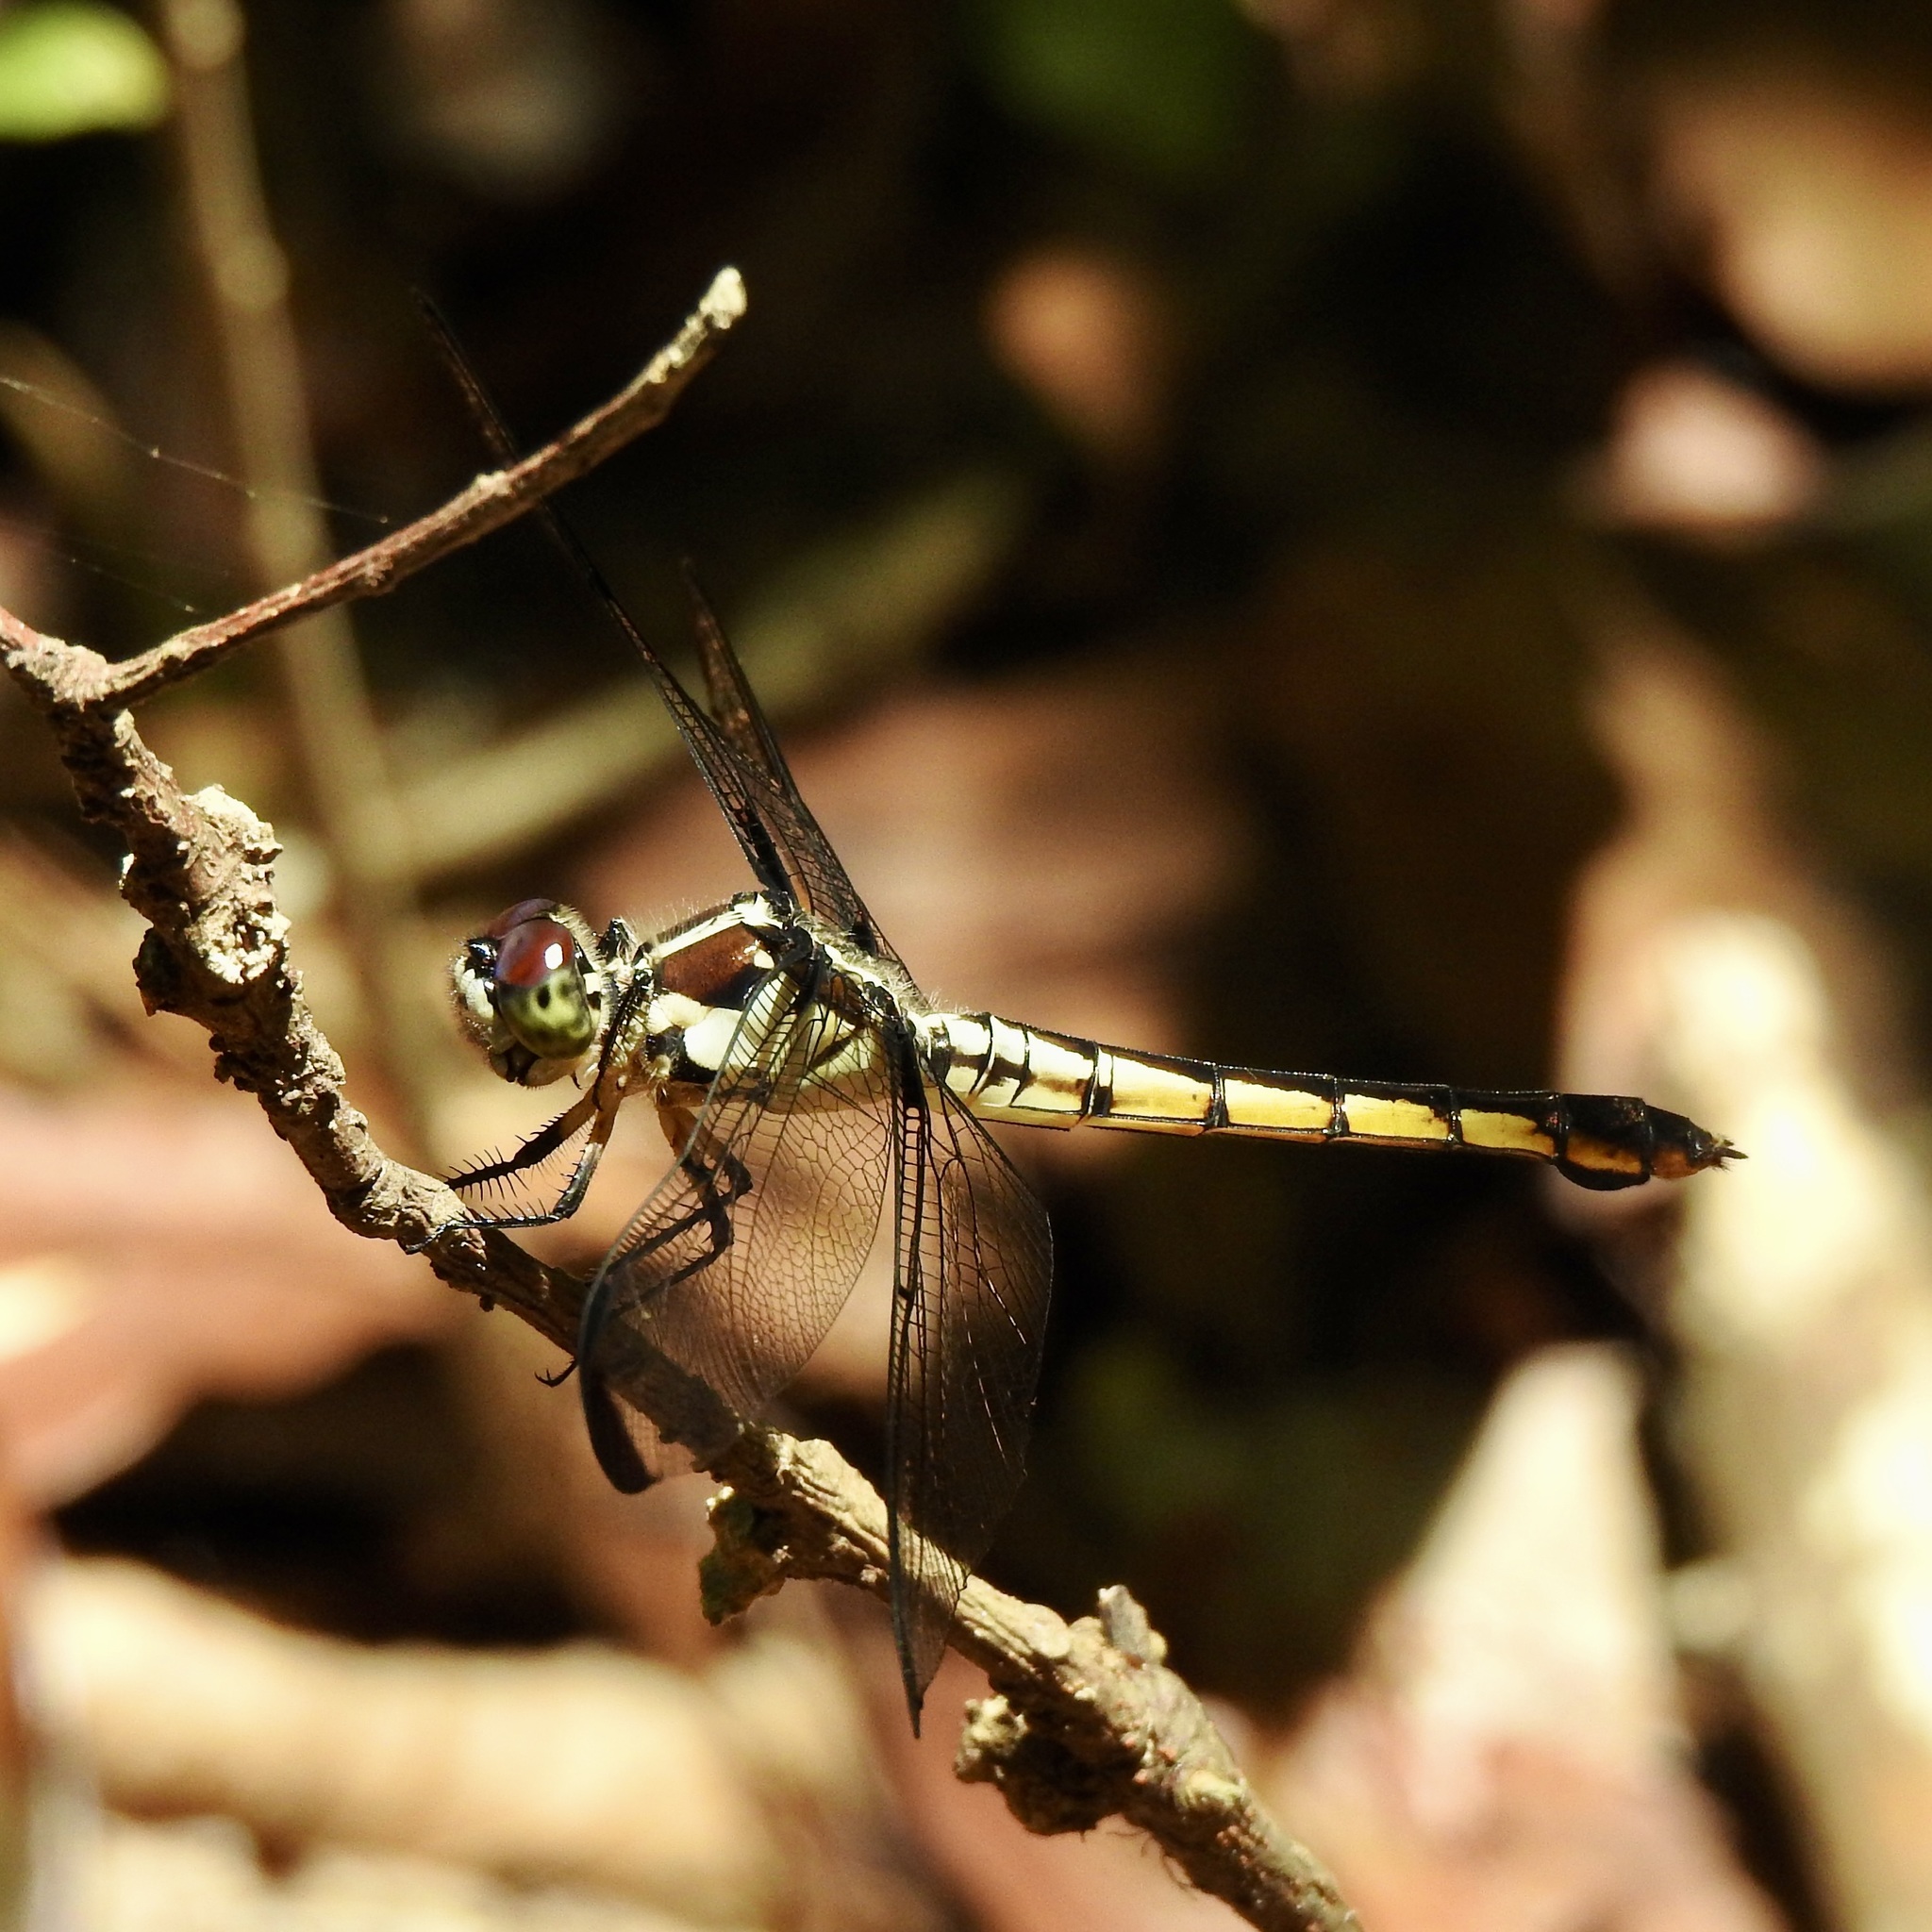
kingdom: Animalia
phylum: Arthropoda
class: Insecta
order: Odonata
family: Libellulidae
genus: Libellula
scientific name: Libellula vibrans
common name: Great blue skimmer
